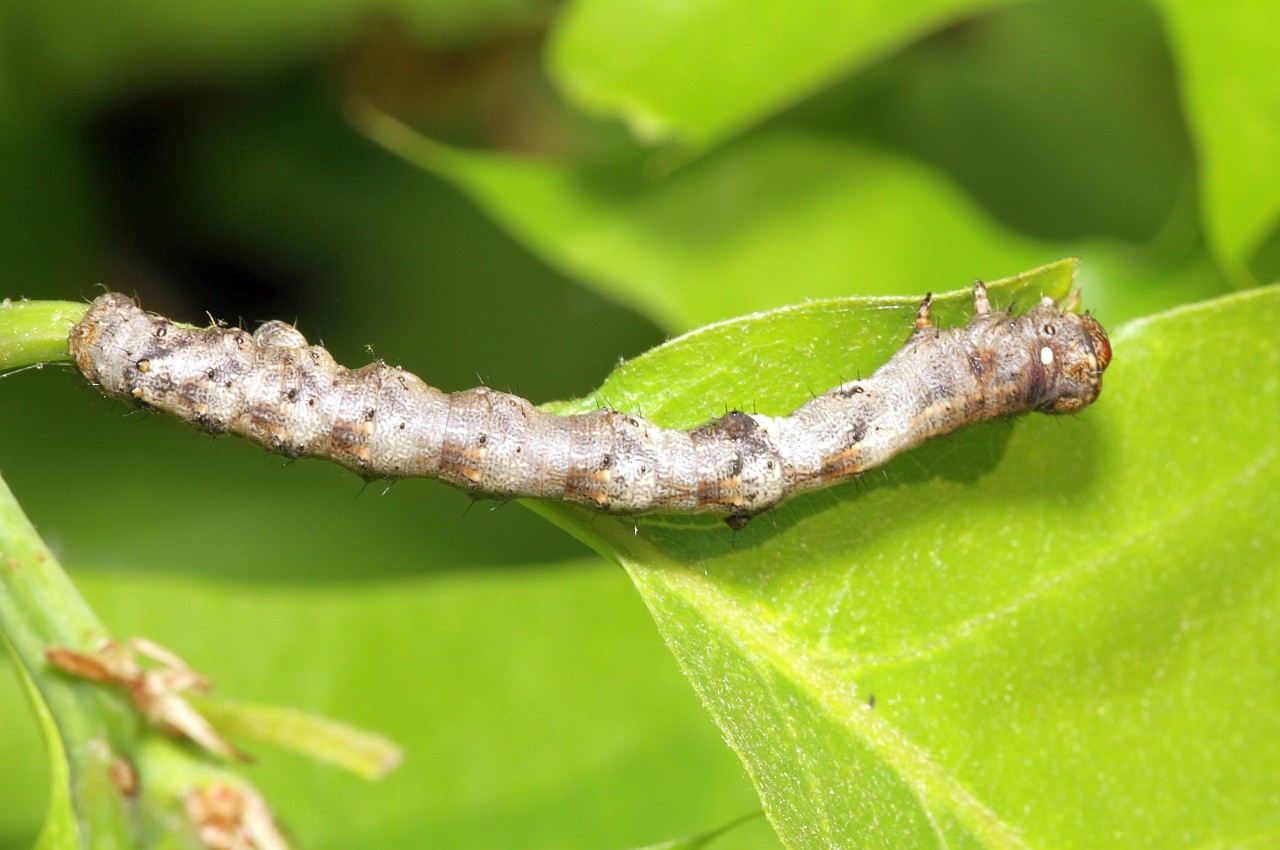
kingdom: Animalia
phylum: Arthropoda
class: Insecta
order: Lepidoptera
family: Geometridae
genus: Apocheima
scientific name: Apocheima hispidaria
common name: Small brindled beauty
